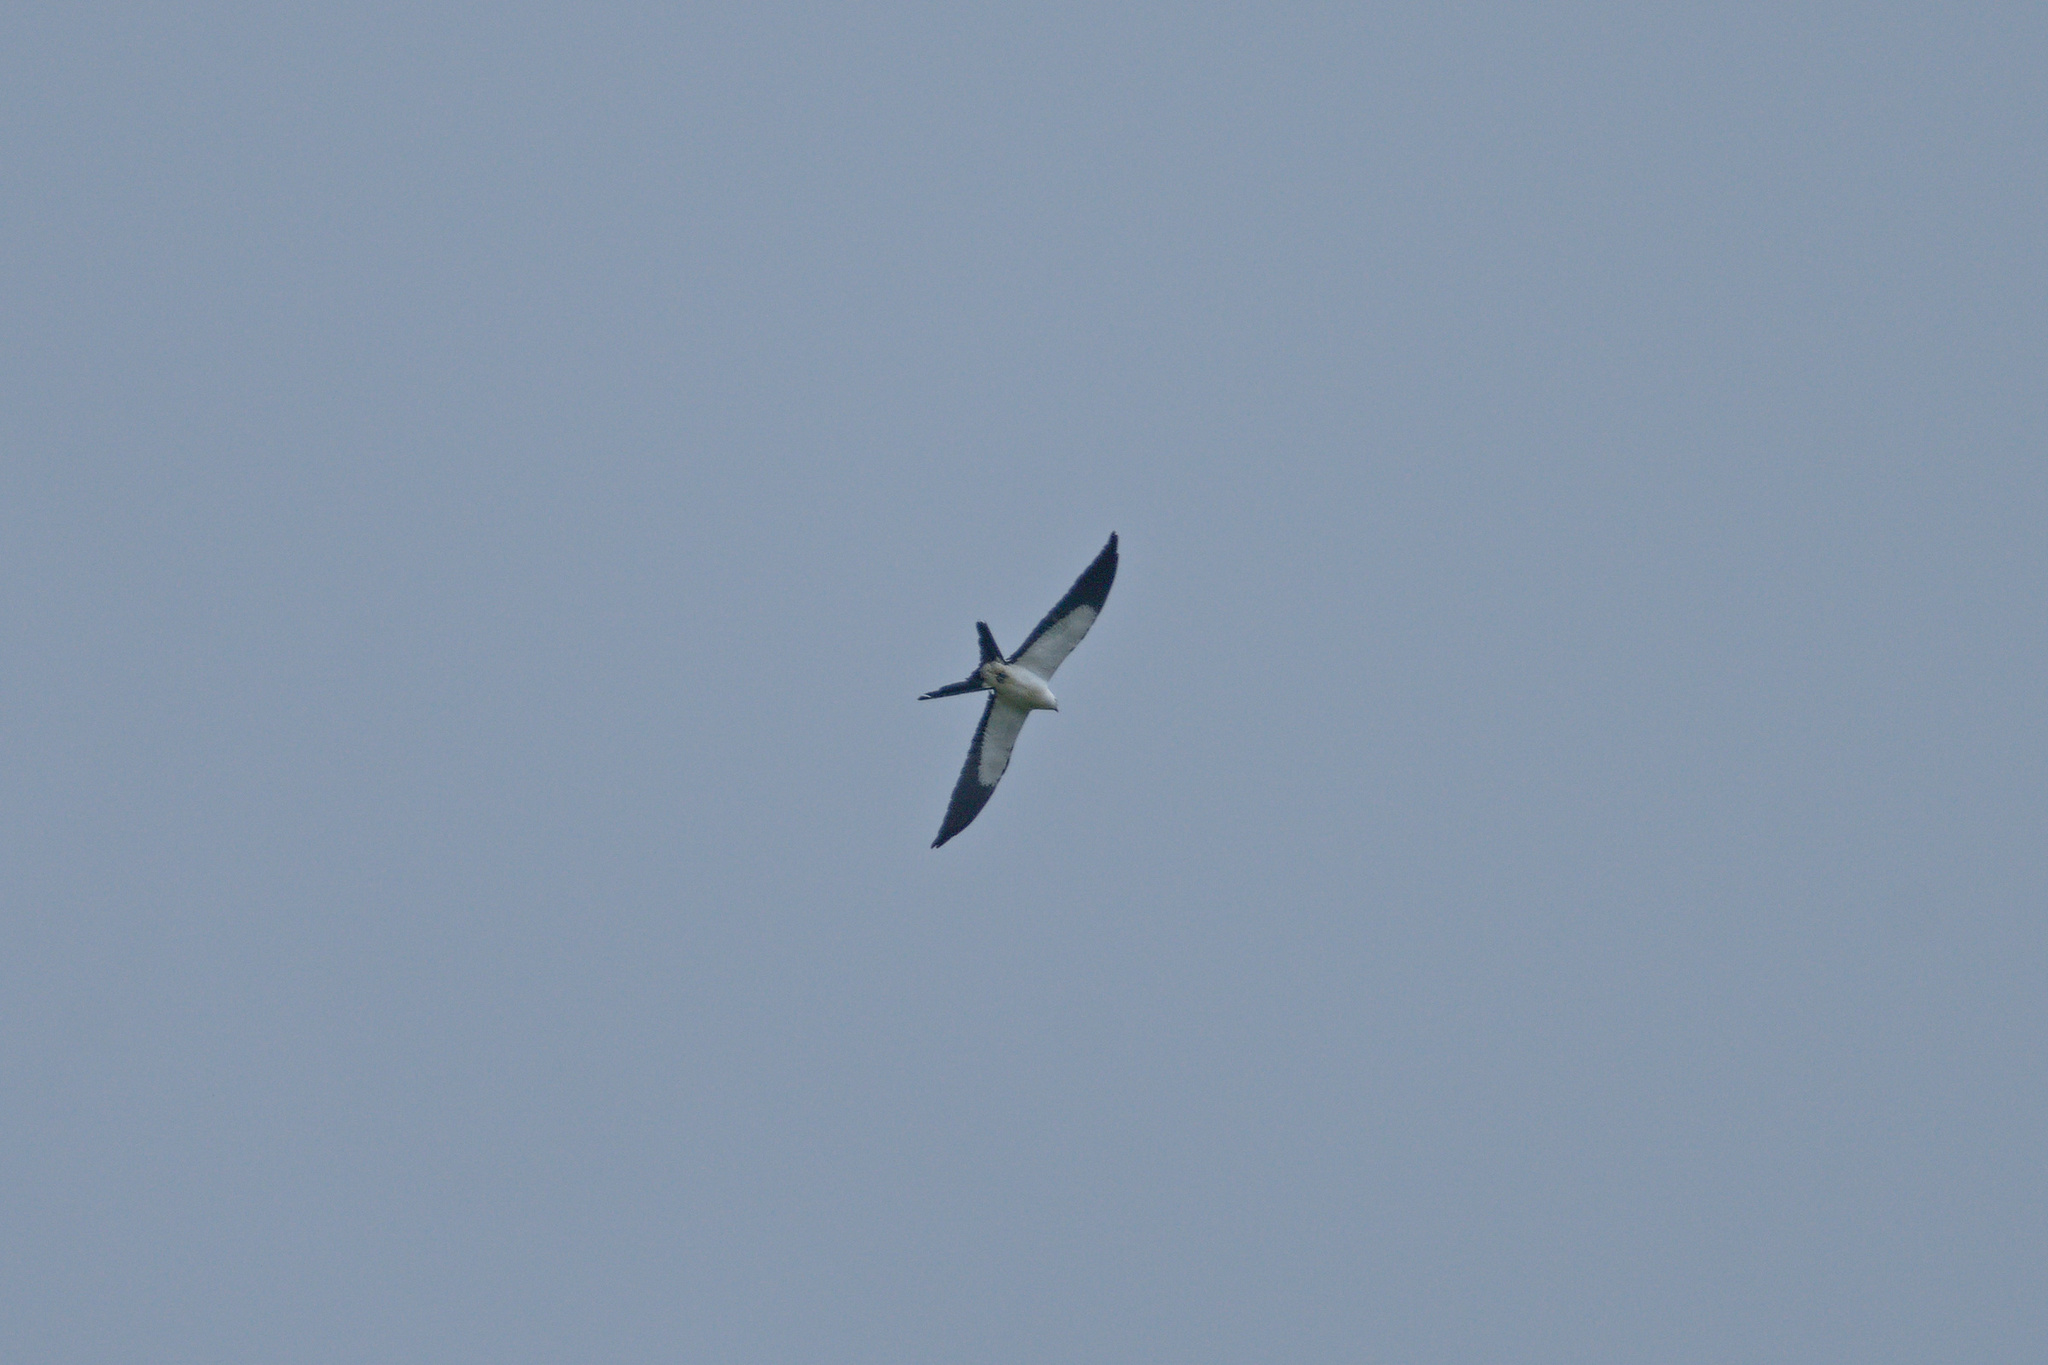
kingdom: Animalia
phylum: Chordata
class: Aves
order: Accipitriformes
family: Accipitridae
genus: Elanoides
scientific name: Elanoides forficatus
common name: Swallow-tailed kite
